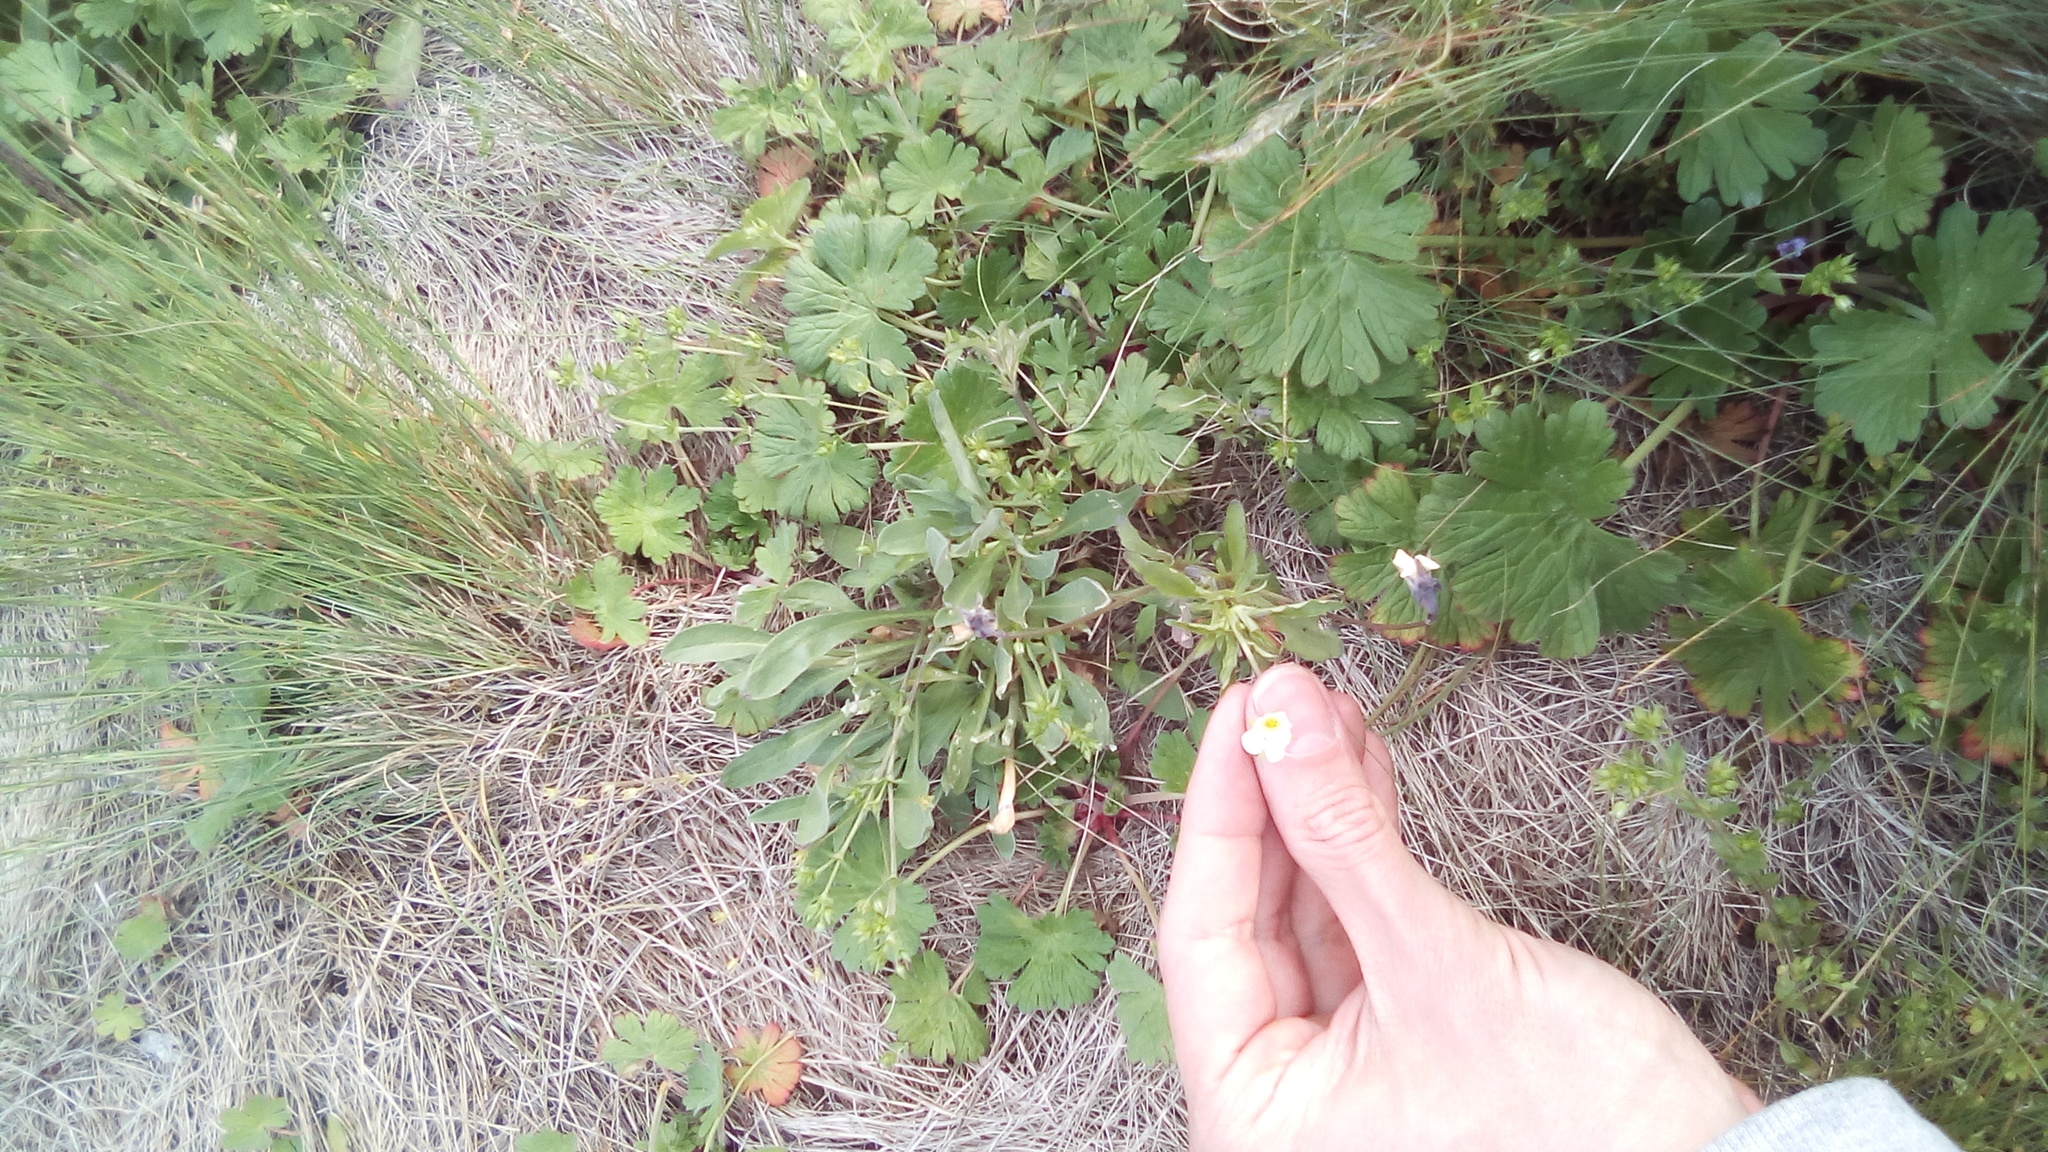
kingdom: Plantae
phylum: Tracheophyta
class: Magnoliopsida
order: Malpighiales
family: Violaceae
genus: Viola
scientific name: Viola arvensis
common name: Field pansy
